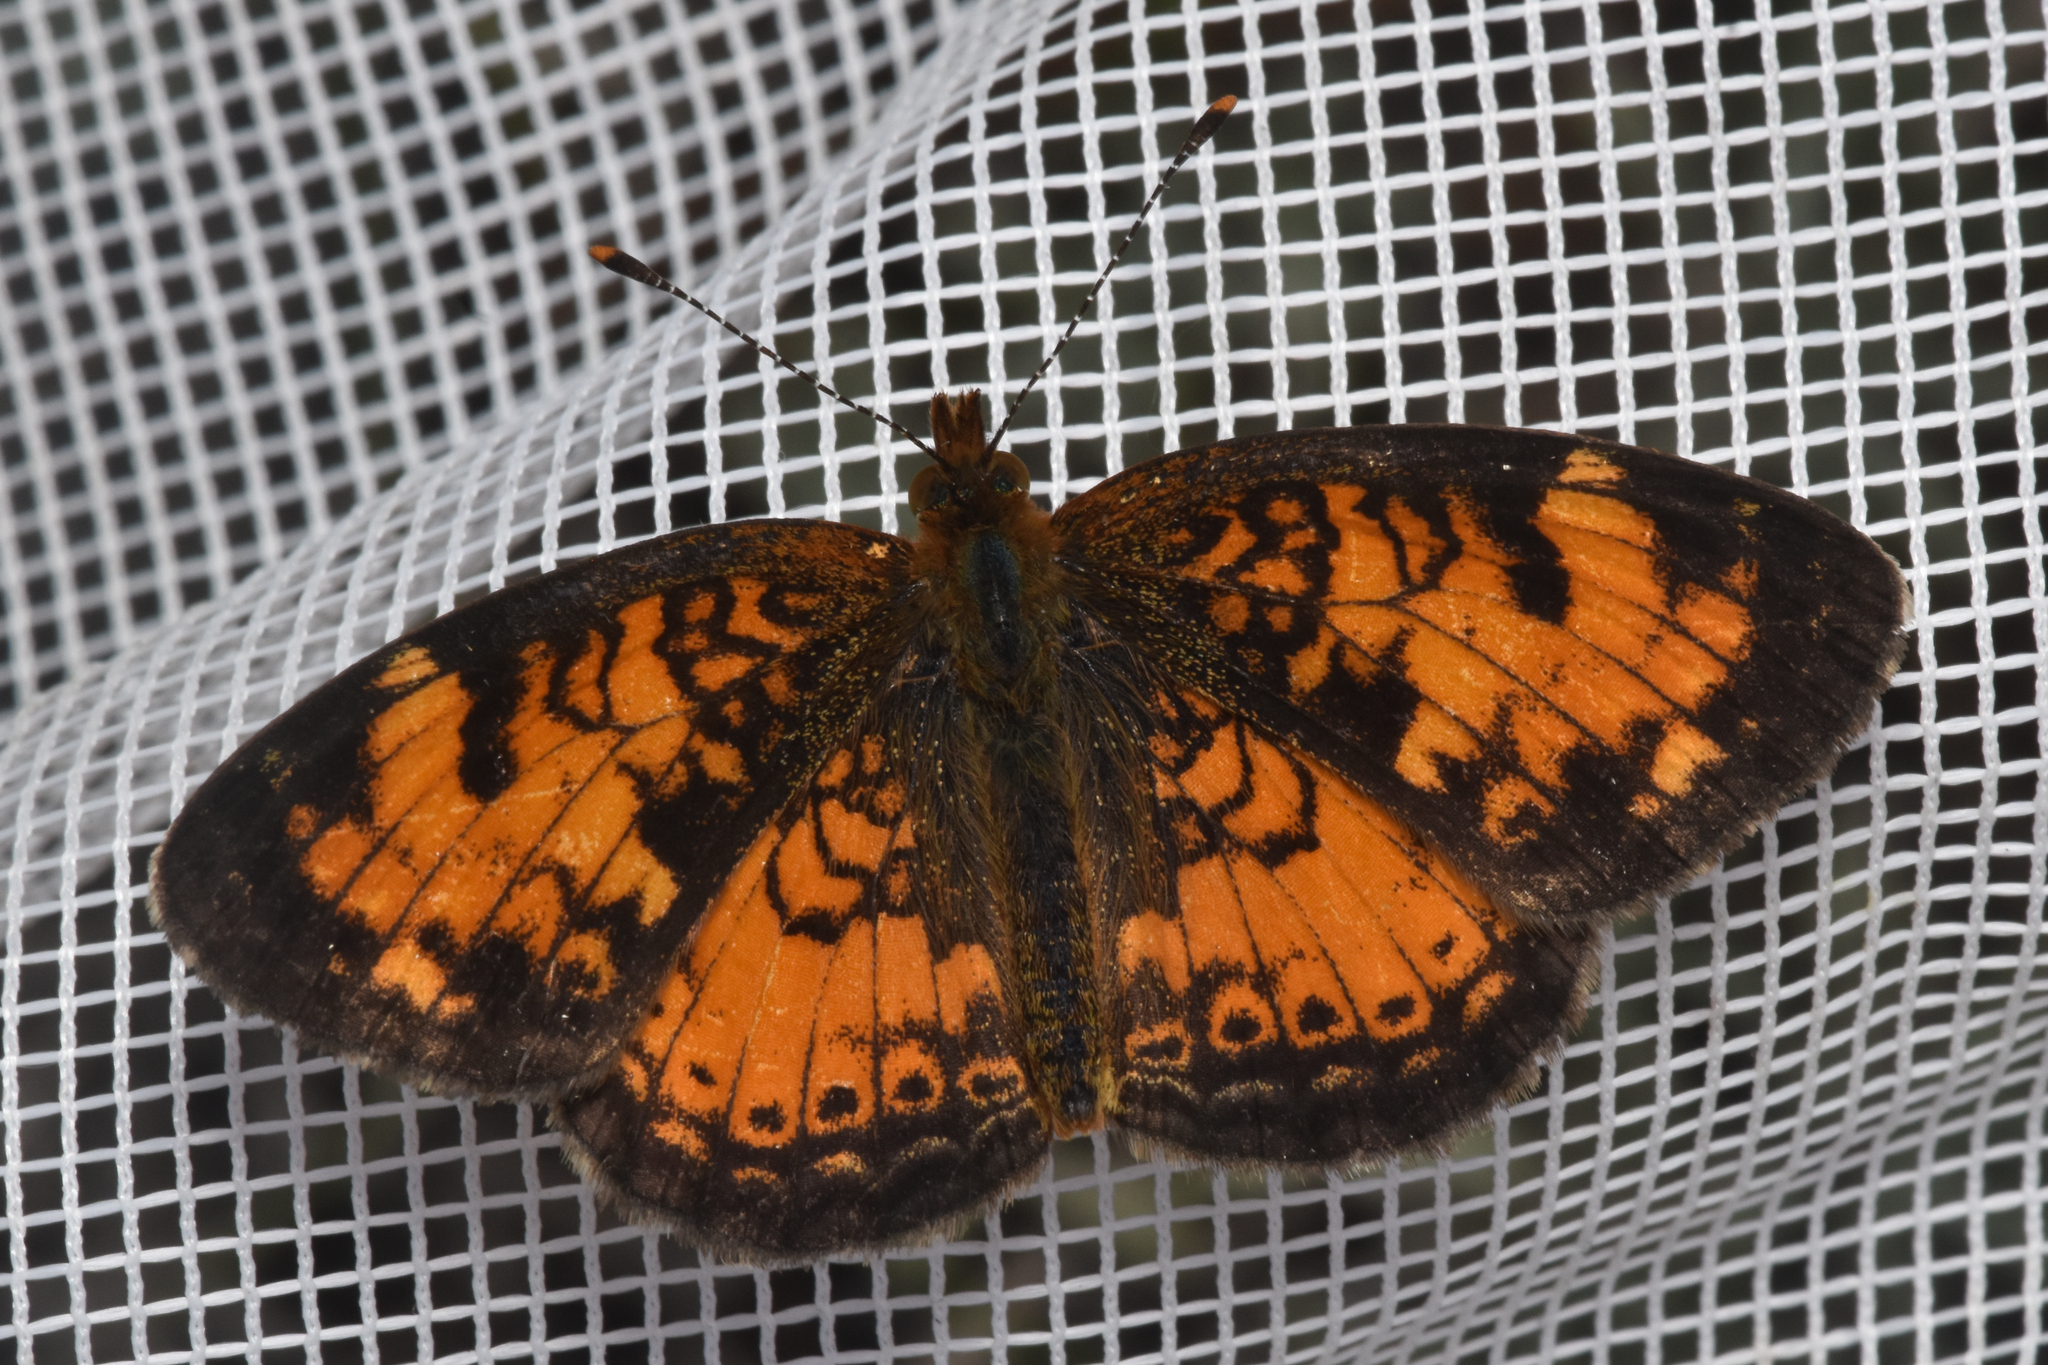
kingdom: Animalia
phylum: Arthropoda
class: Insecta
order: Lepidoptera
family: Nymphalidae
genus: Phyciodes
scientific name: Phyciodes tharos
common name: Pearl crescent
